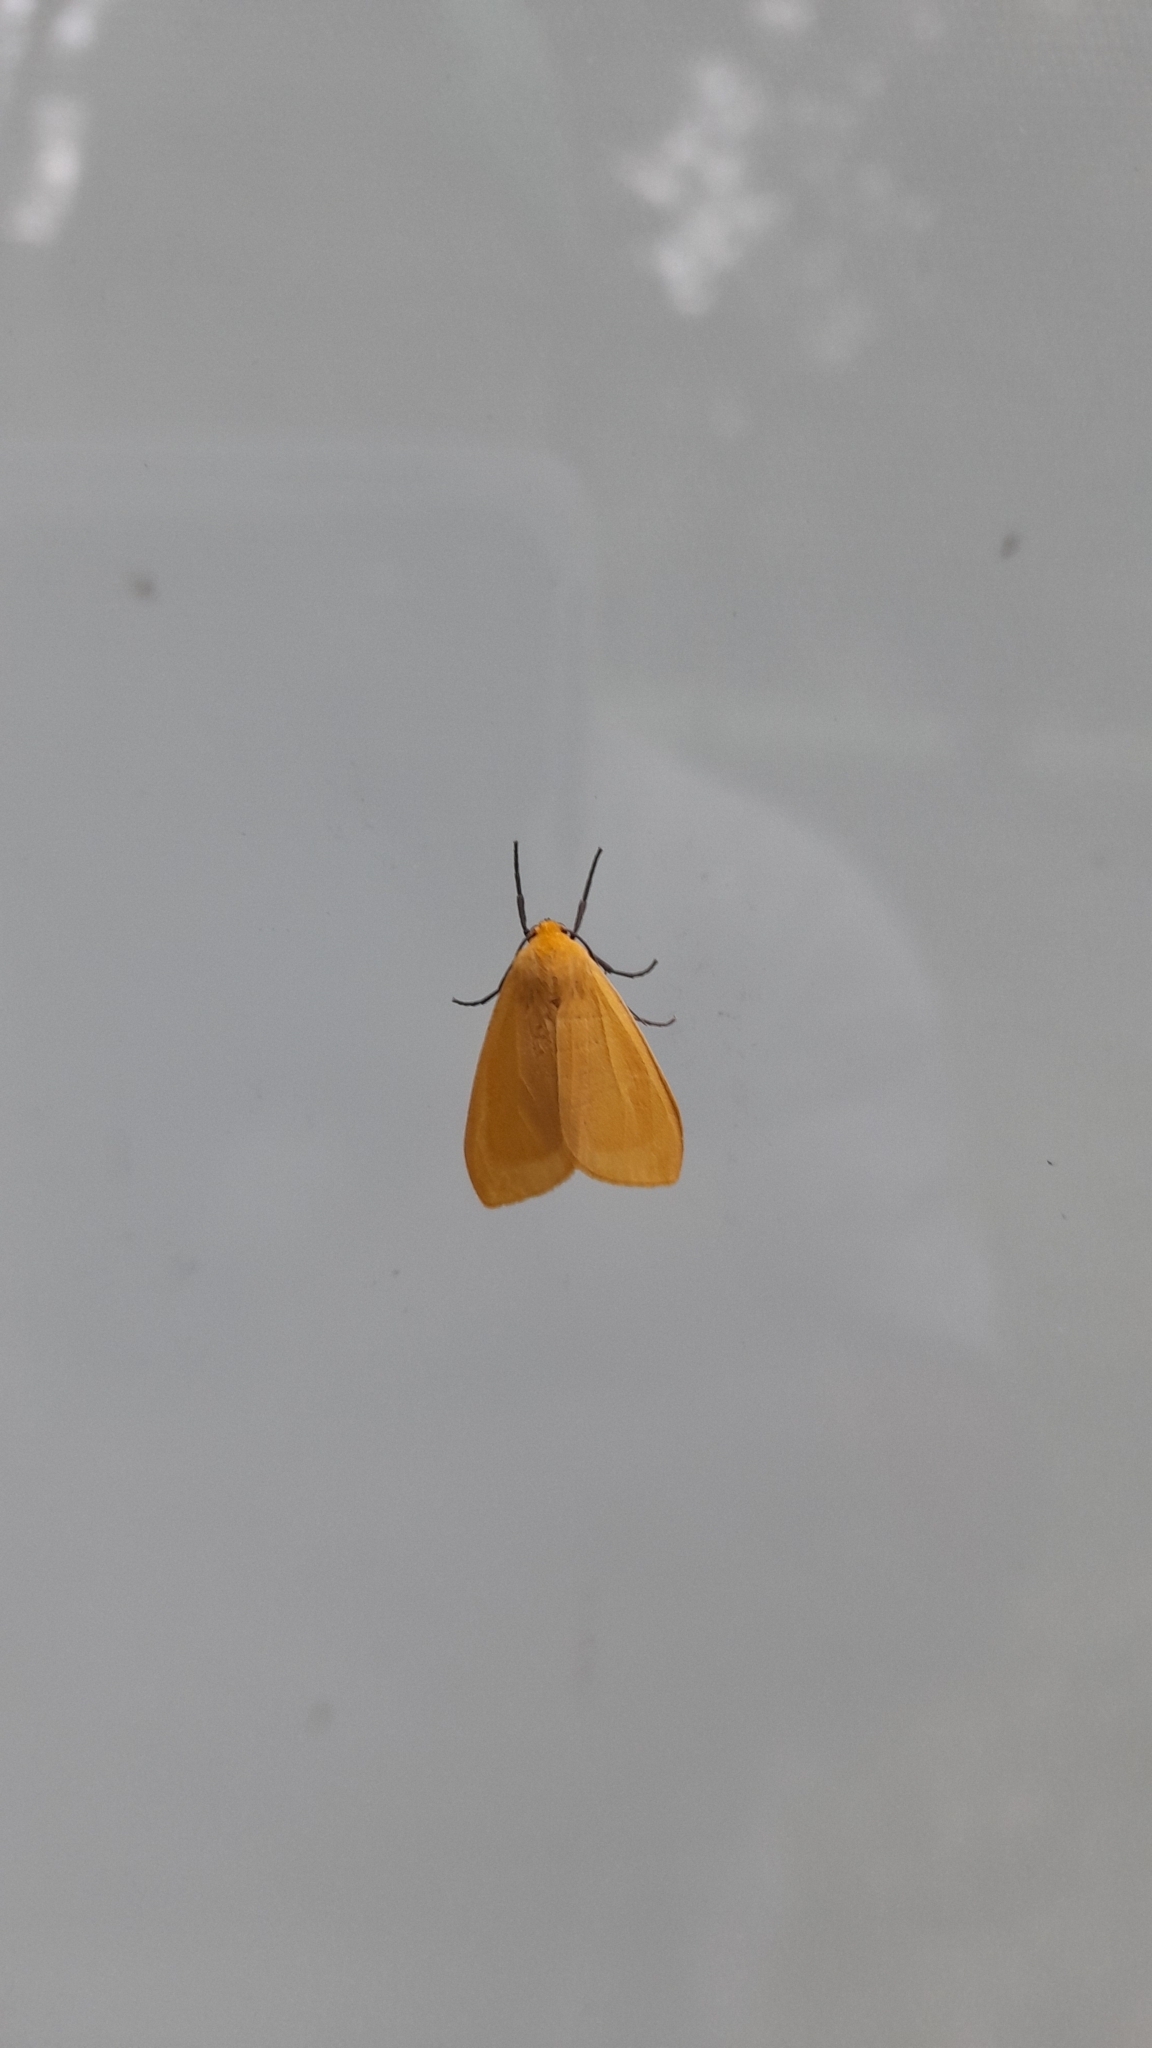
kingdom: Animalia
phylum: Arthropoda
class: Insecta
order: Lepidoptera
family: Erebidae
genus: Pareuchaetes
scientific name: Pareuchaetes aurata
